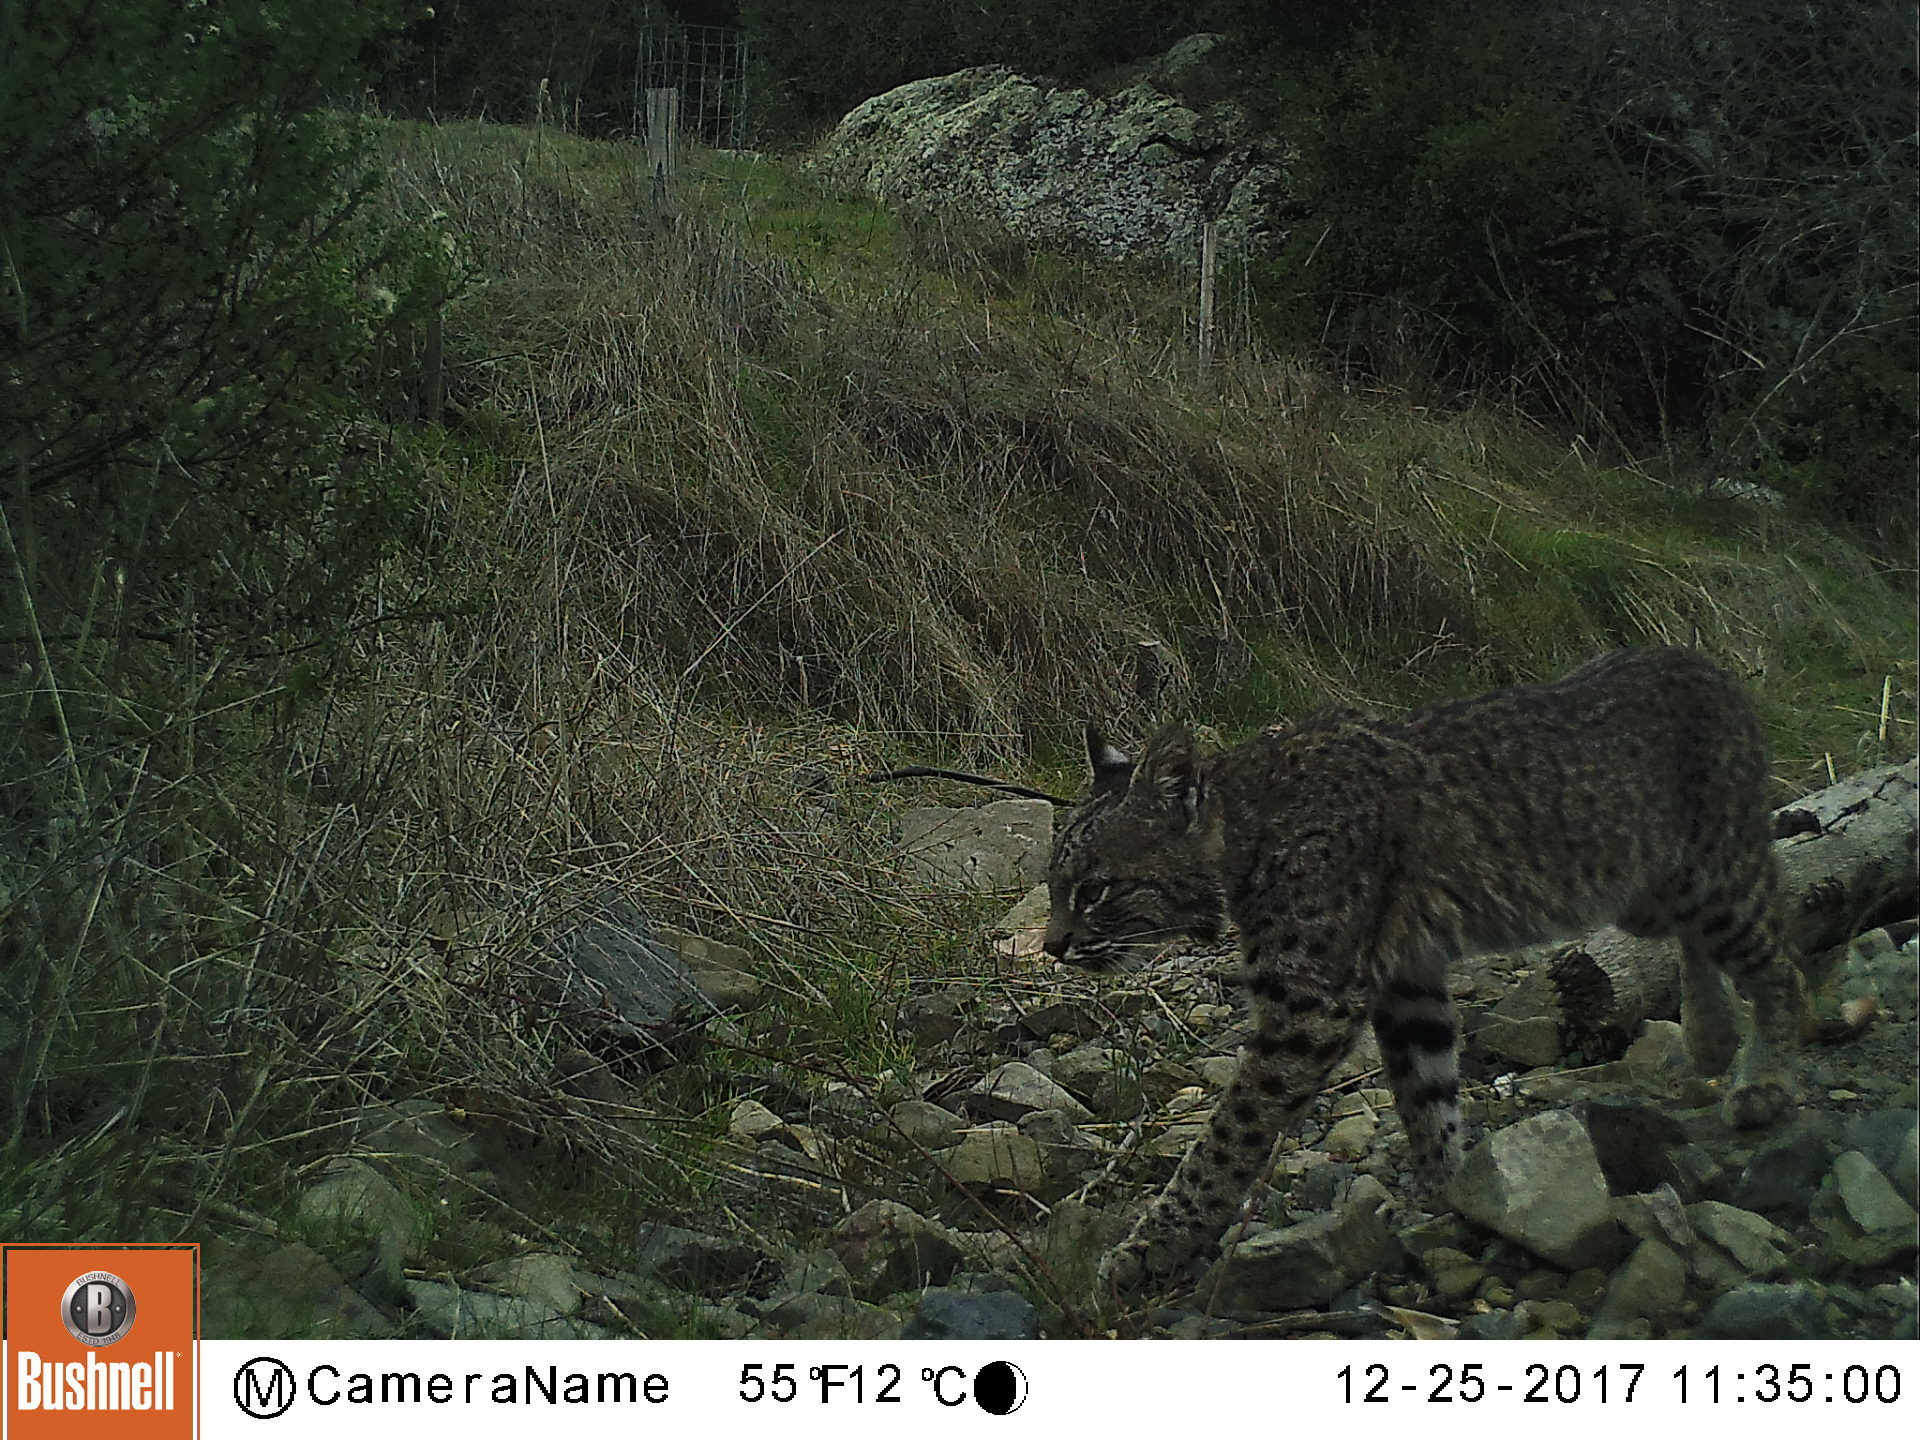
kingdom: Animalia
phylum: Chordata
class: Mammalia
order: Carnivora
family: Felidae
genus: Lynx
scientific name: Lynx rufus
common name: Bobcat
